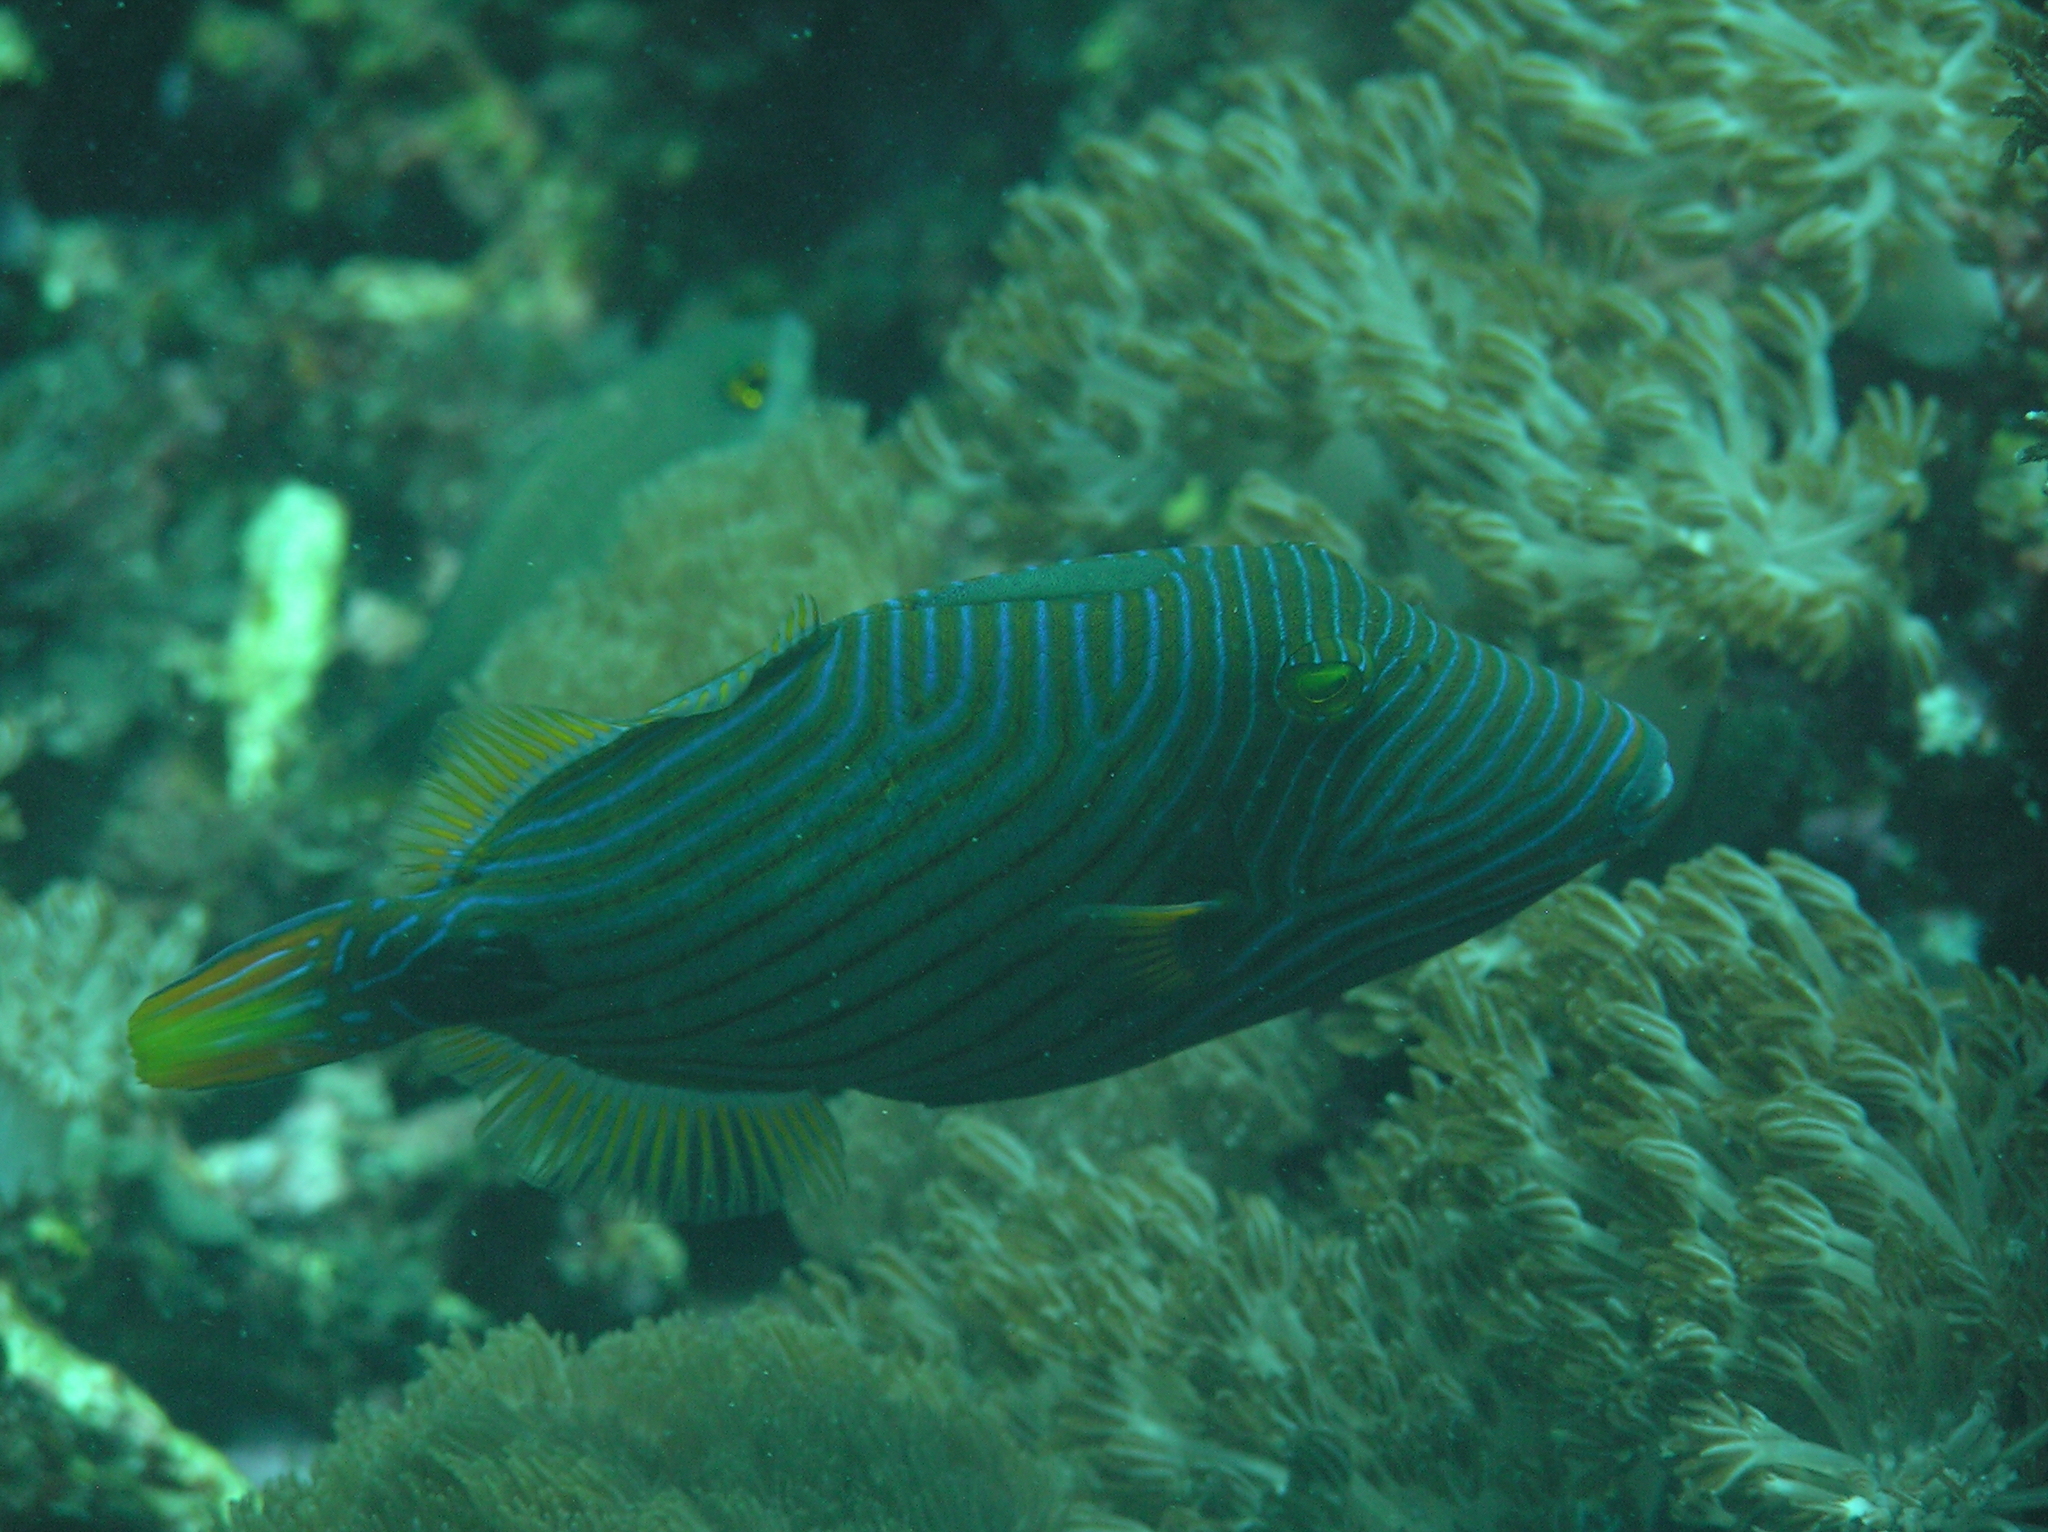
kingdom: Animalia
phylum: Chordata
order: Tetraodontiformes
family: Balistidae
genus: Balistapus
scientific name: Balistapus undulatus
